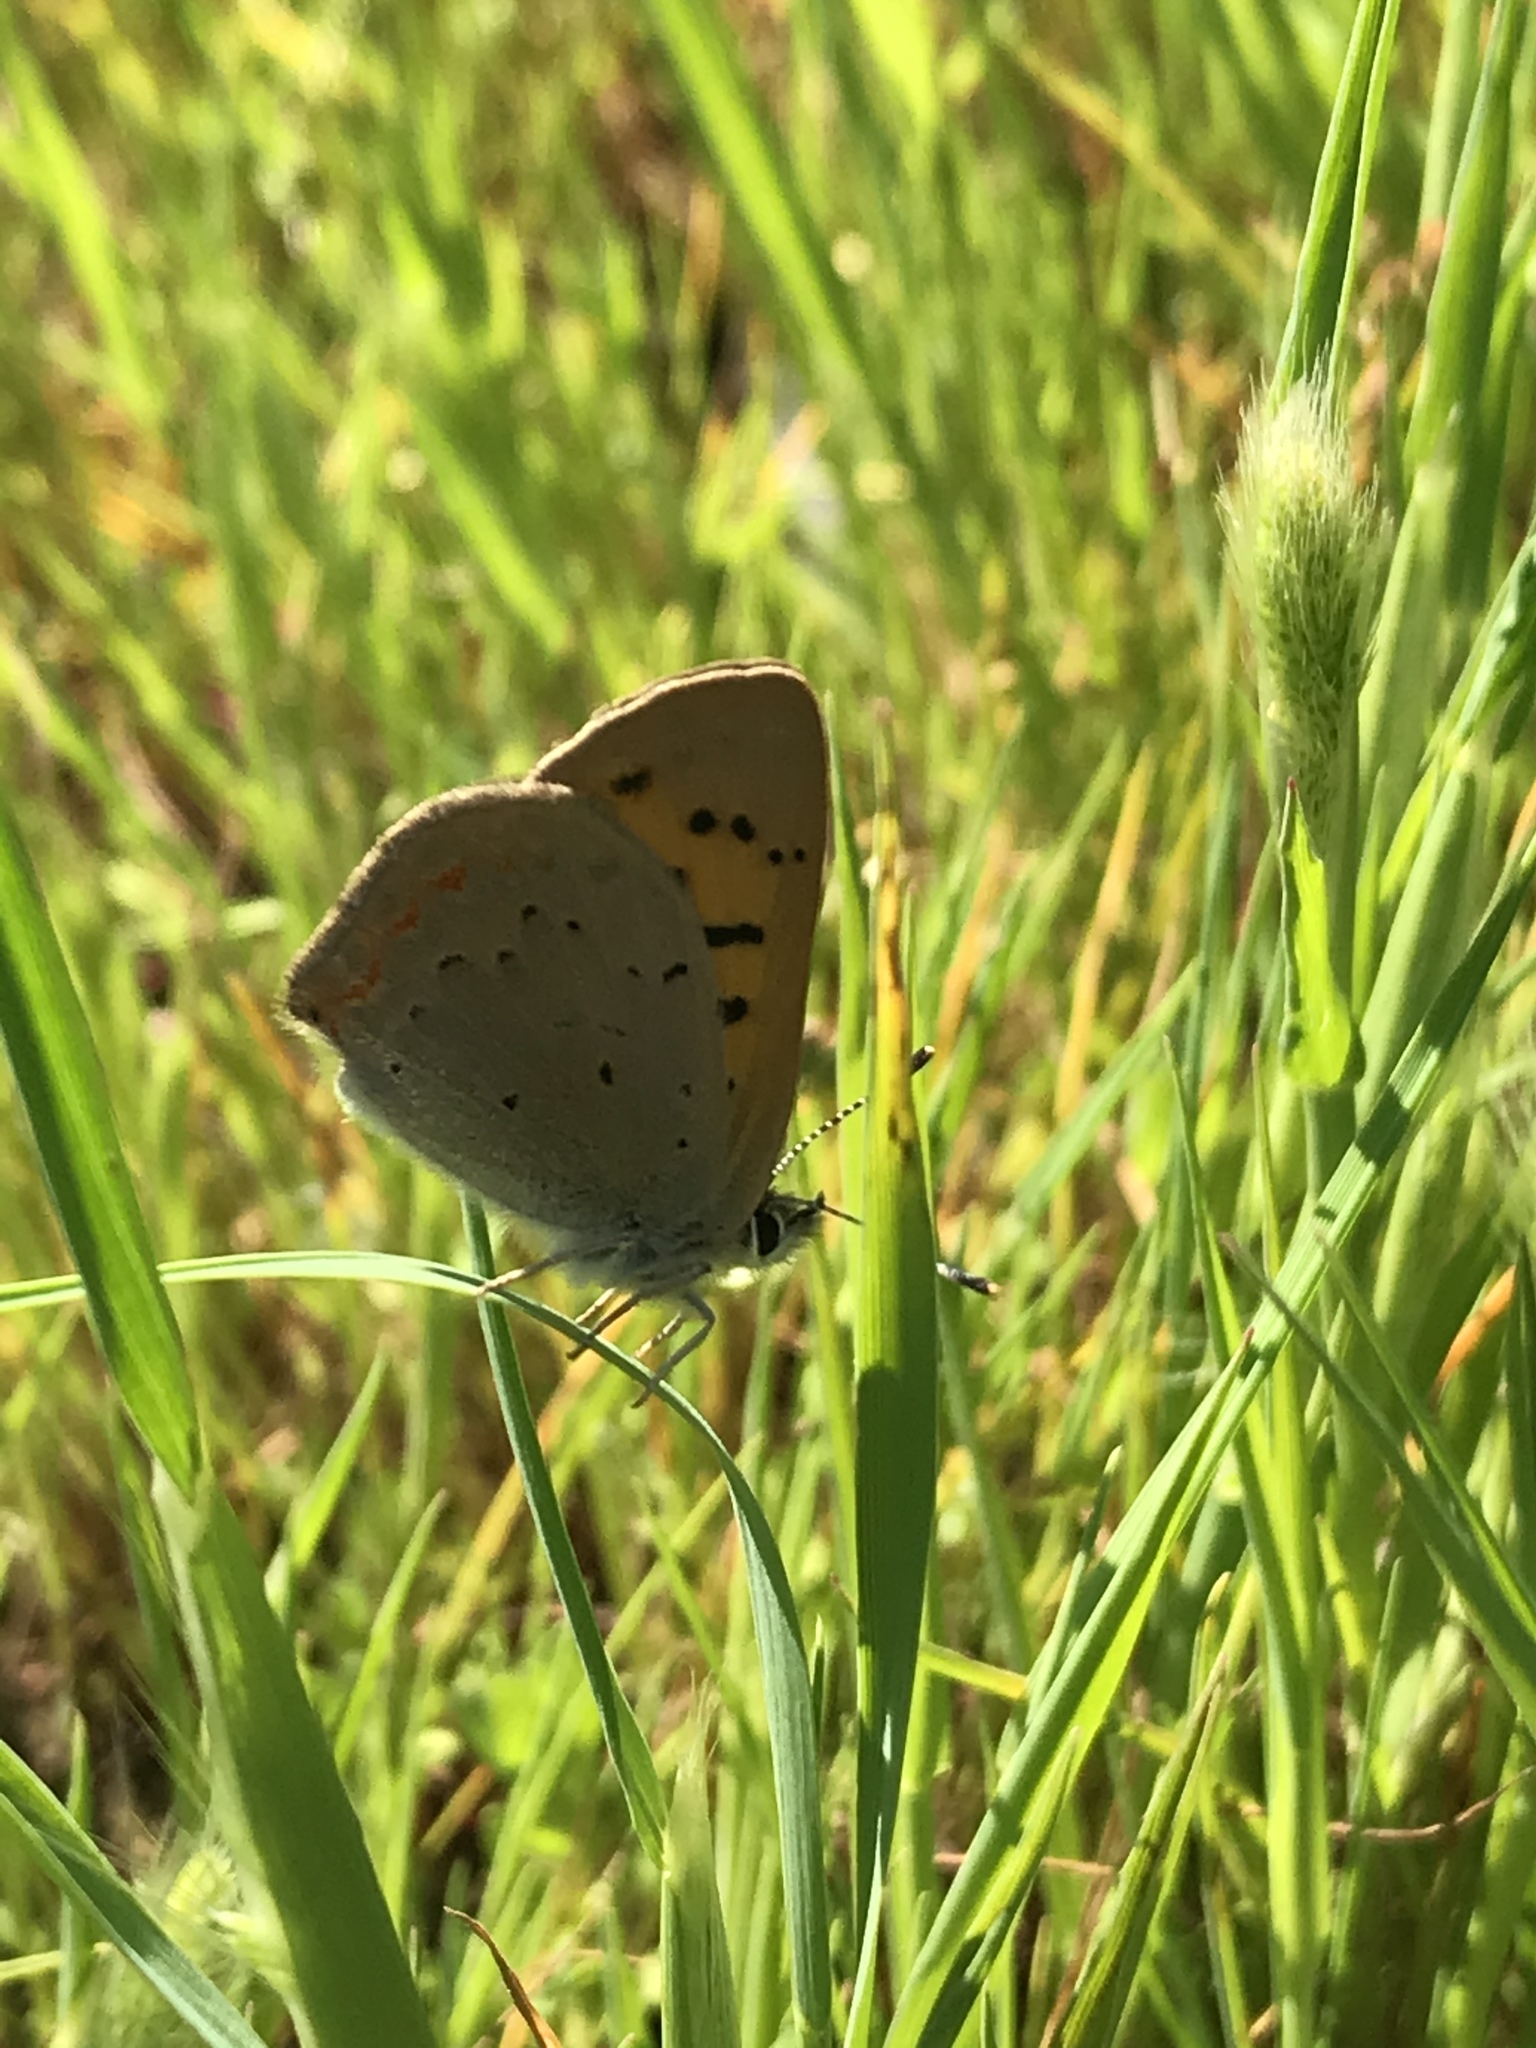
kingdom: Animalia
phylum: Arthropoda
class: Insecta
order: Lepidoptera
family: Lycaenidae
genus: Tharsalea
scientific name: Tharsalea helloides
